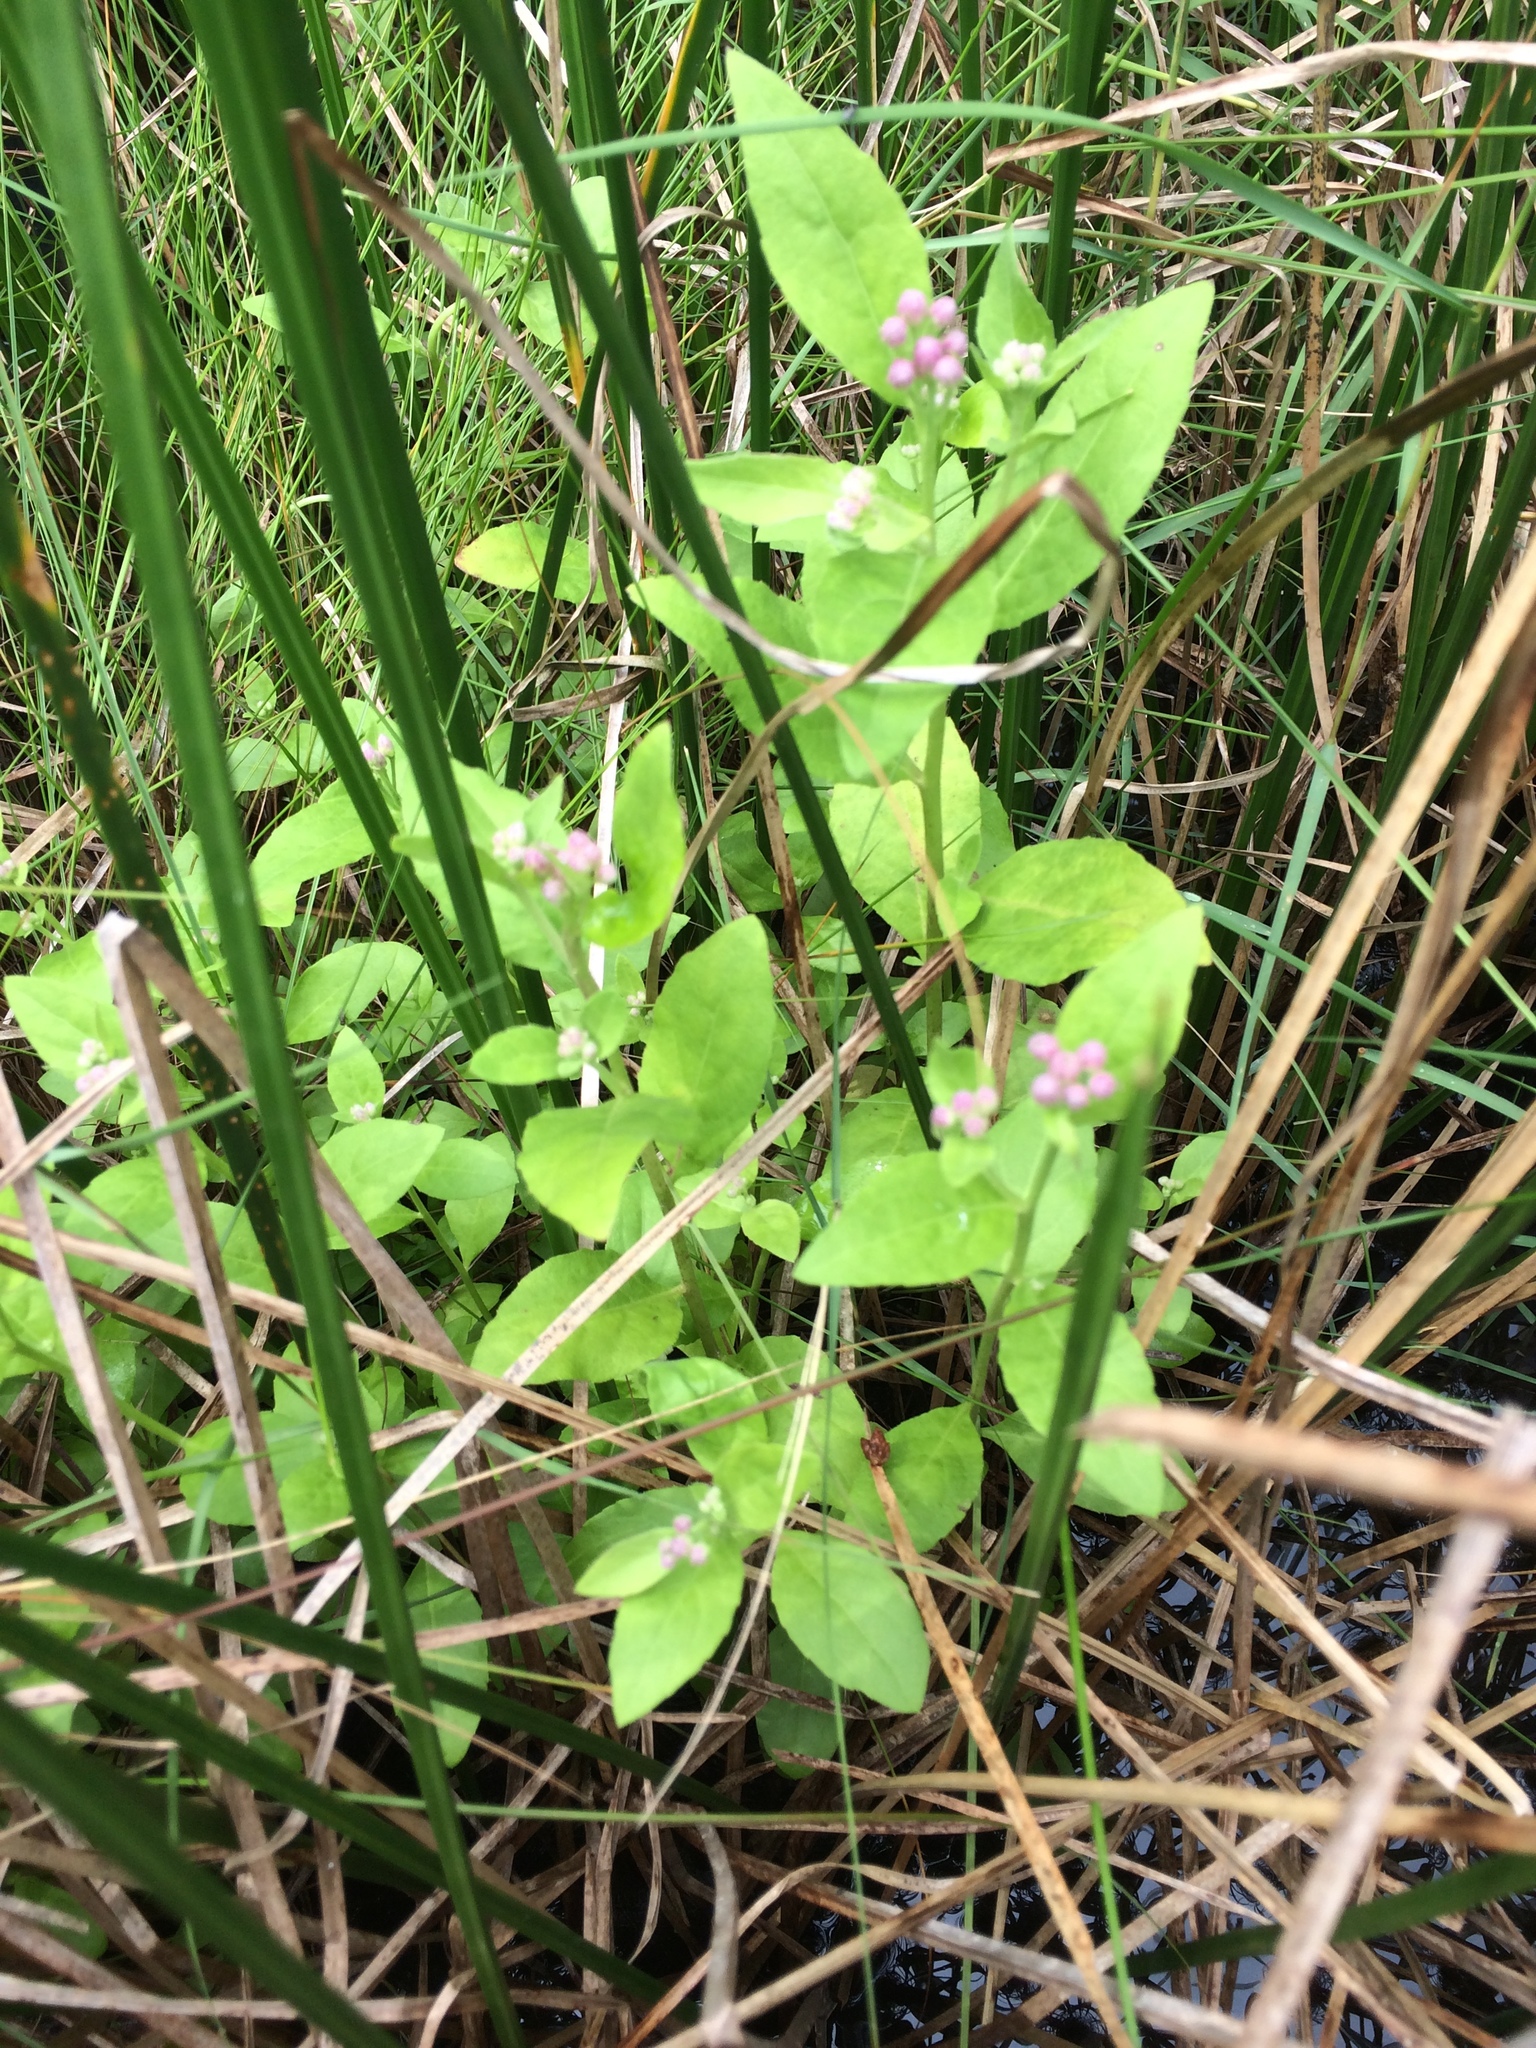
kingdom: Plantae
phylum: Tracheophyta
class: Magnoliopsida
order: Asterales
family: Asteraceae
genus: Pluchea
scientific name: Pluchea odorata
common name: Saltmarsh fleabane
